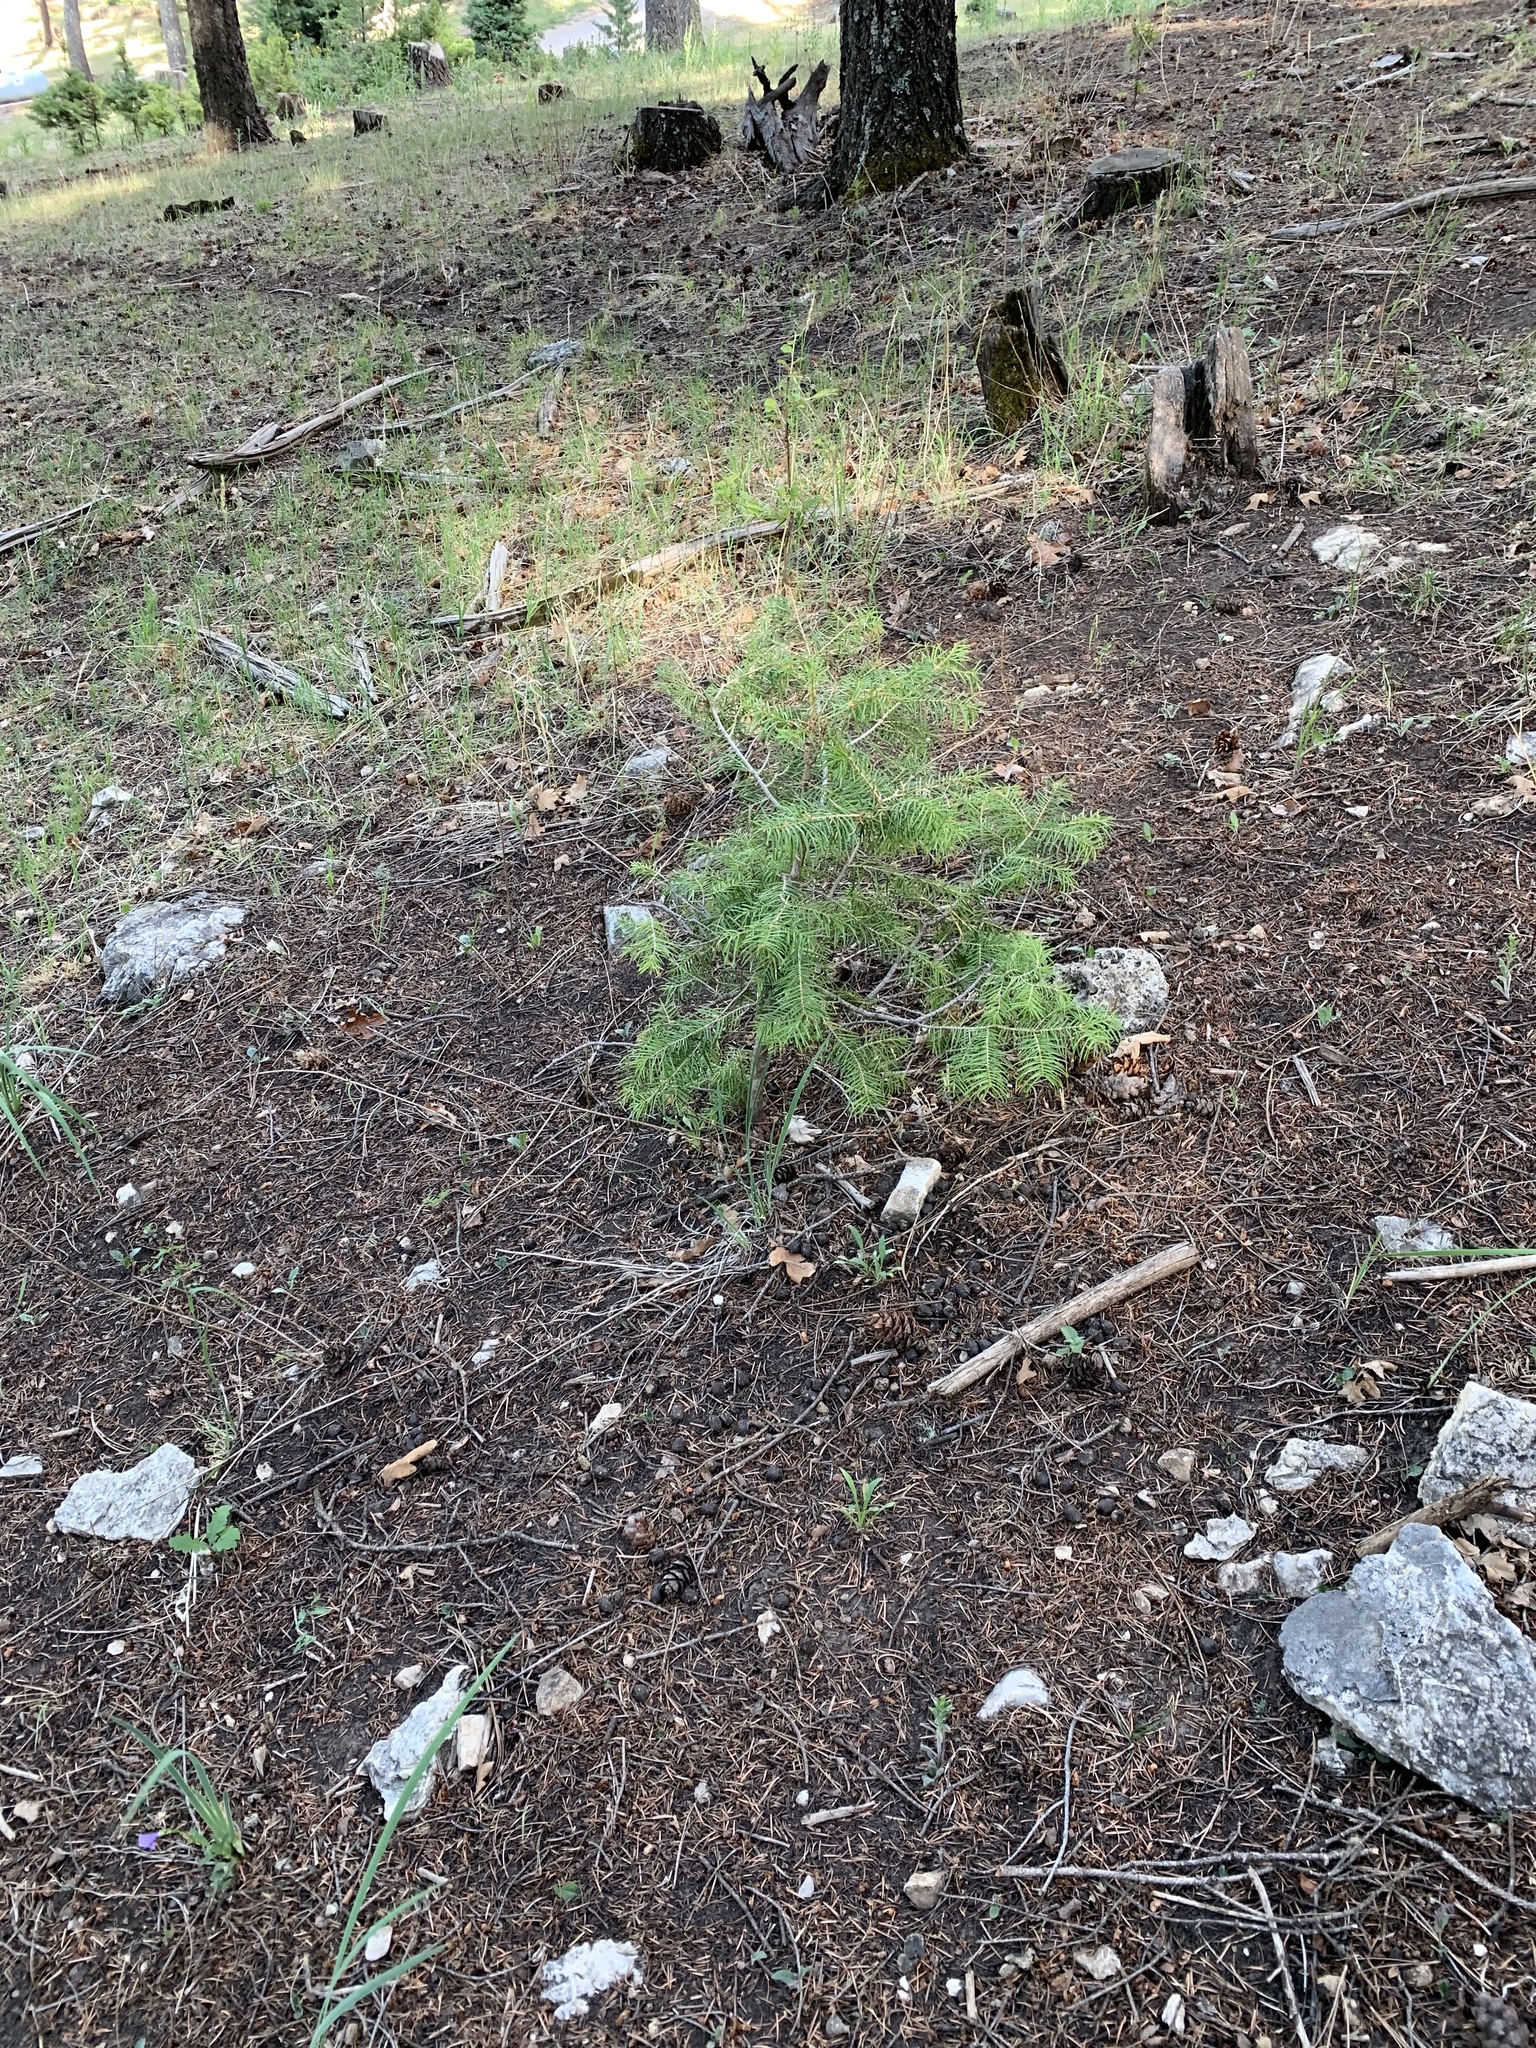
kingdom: Plantae
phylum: Tracheophyta
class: Pinopsida
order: Pinales
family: Pinaceae
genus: Abies
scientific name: Abies concolor
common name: Colorado fir
